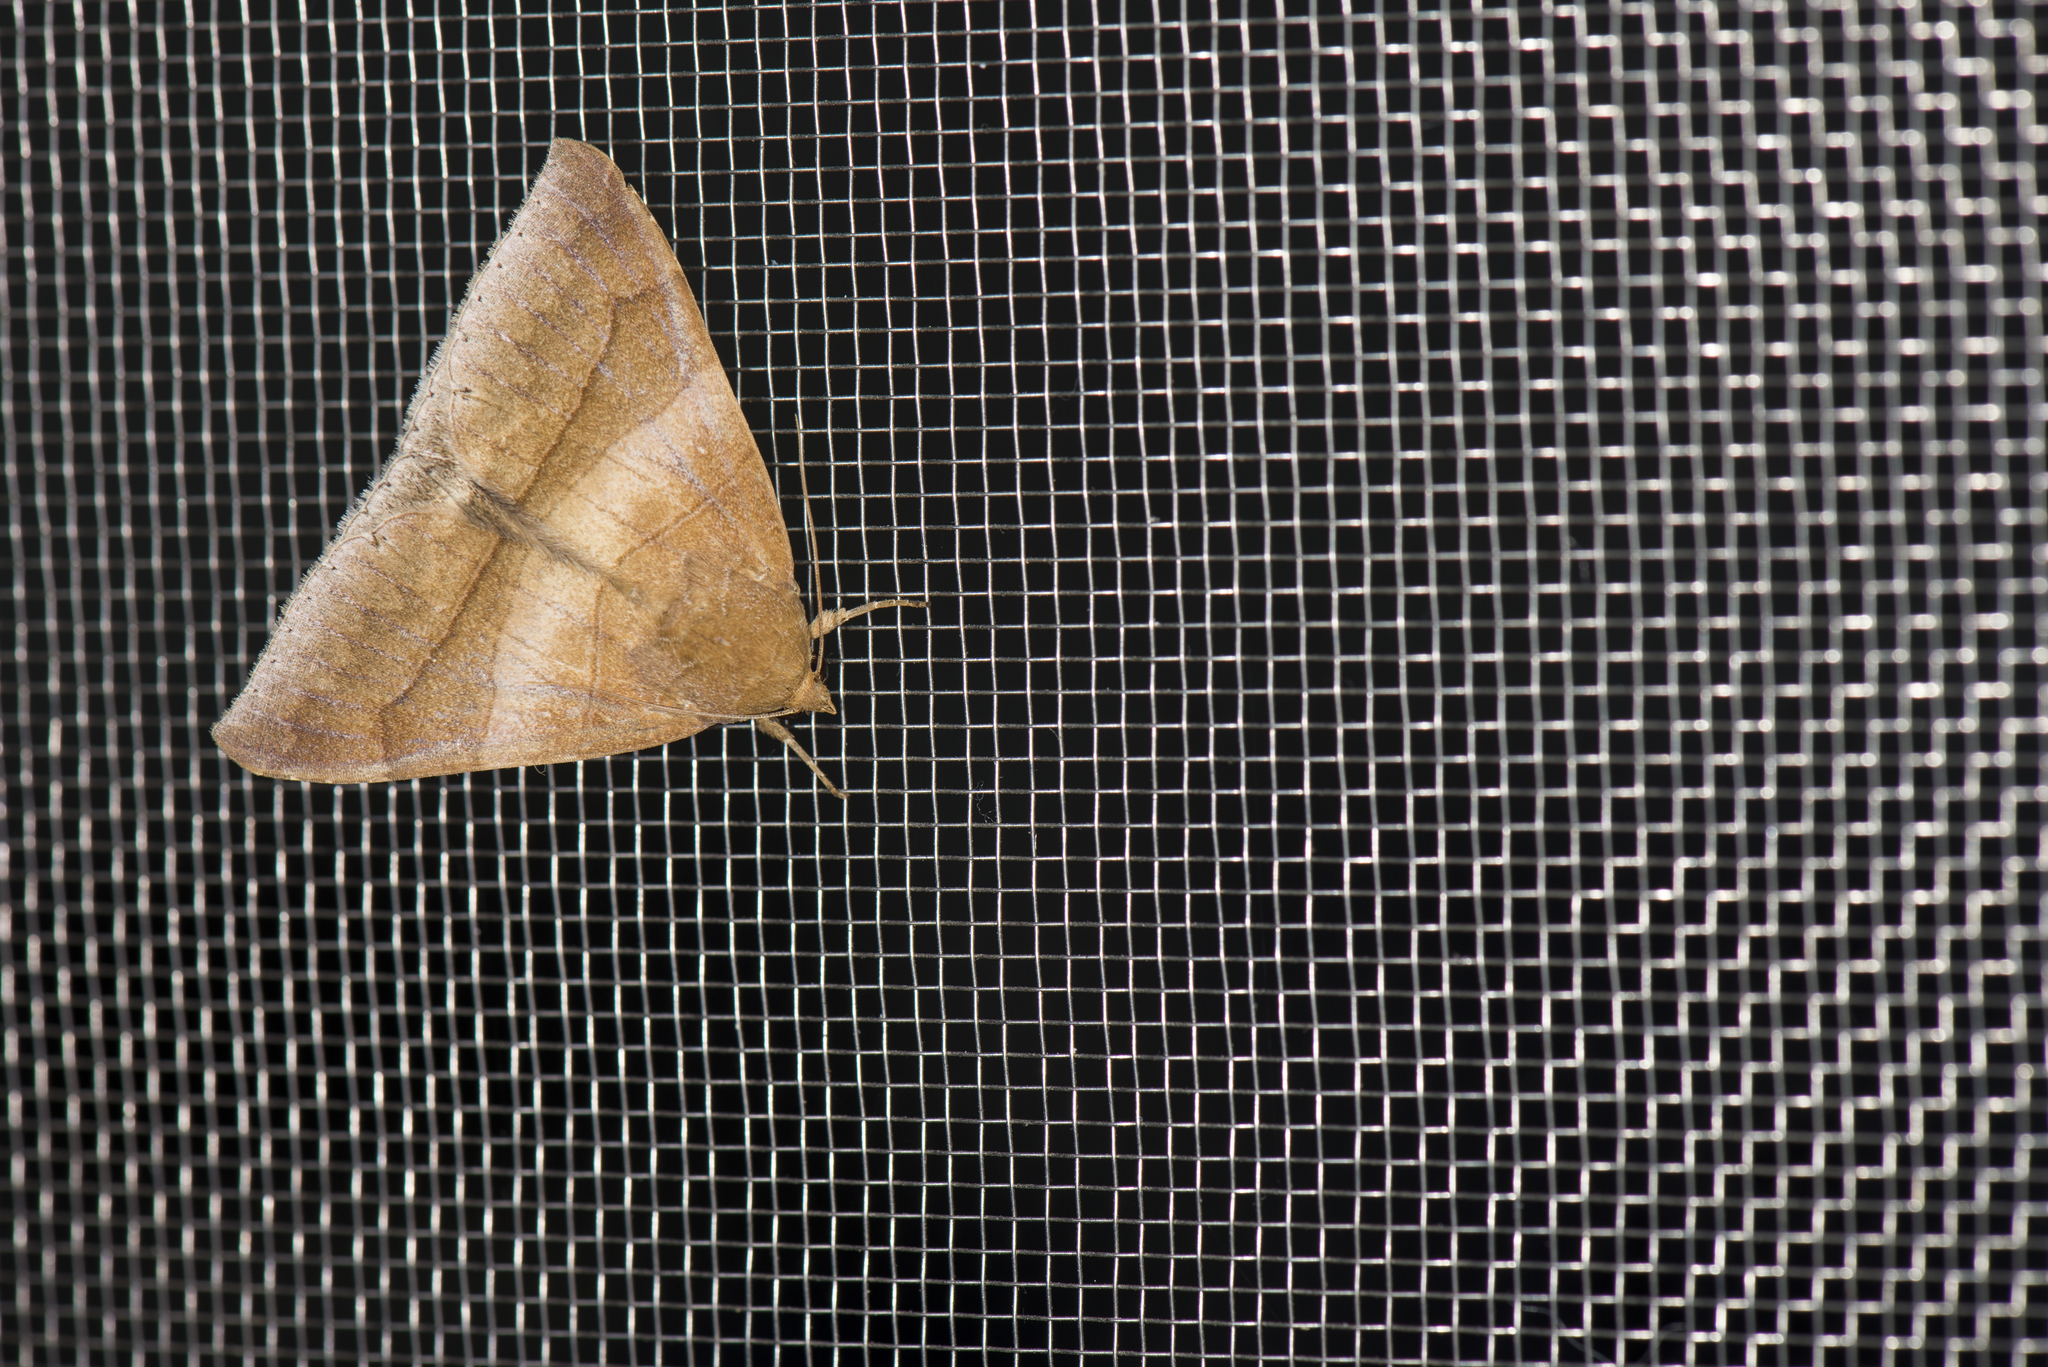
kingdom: Animalia
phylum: Arthropoda
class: Insecta
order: Lepidoptera
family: Erebidae
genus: Bastilla
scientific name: Bastilla absentimacula
